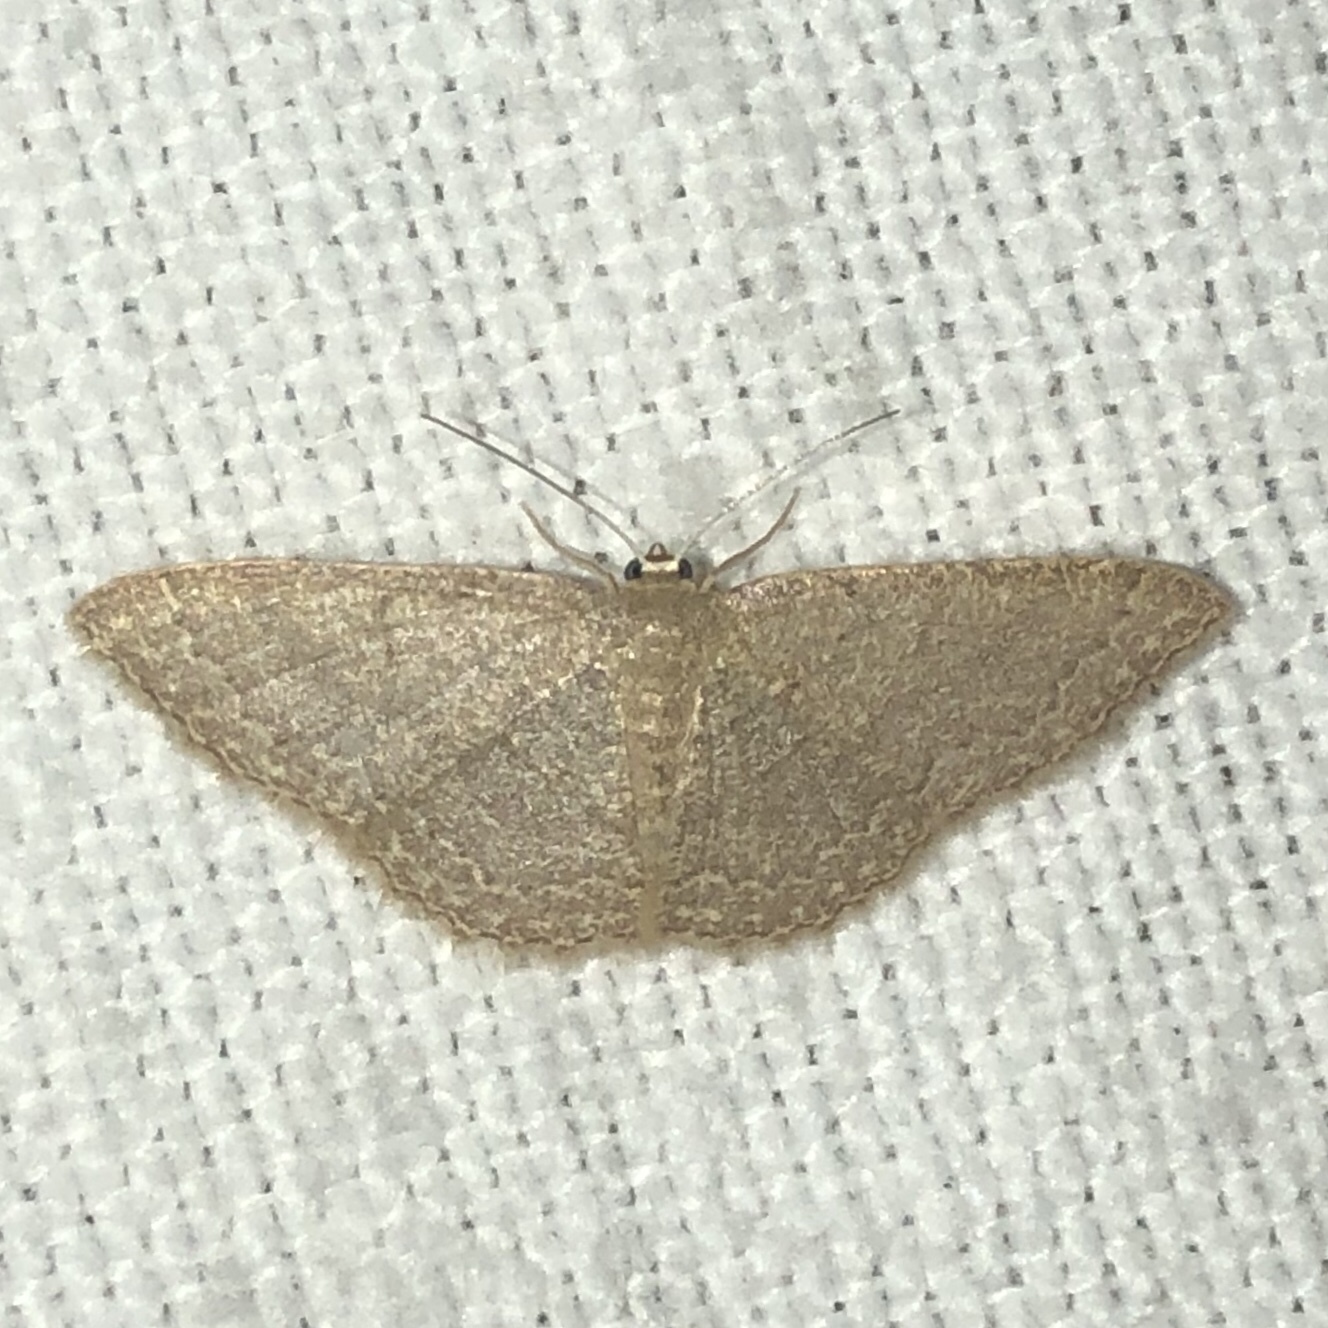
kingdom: Animalia
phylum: Arthropoda
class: Insecta
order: Lepidoptera
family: Geometridae
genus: Pleuroprucha
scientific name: Pleuroprucha insulsaria
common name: Common tan wave
